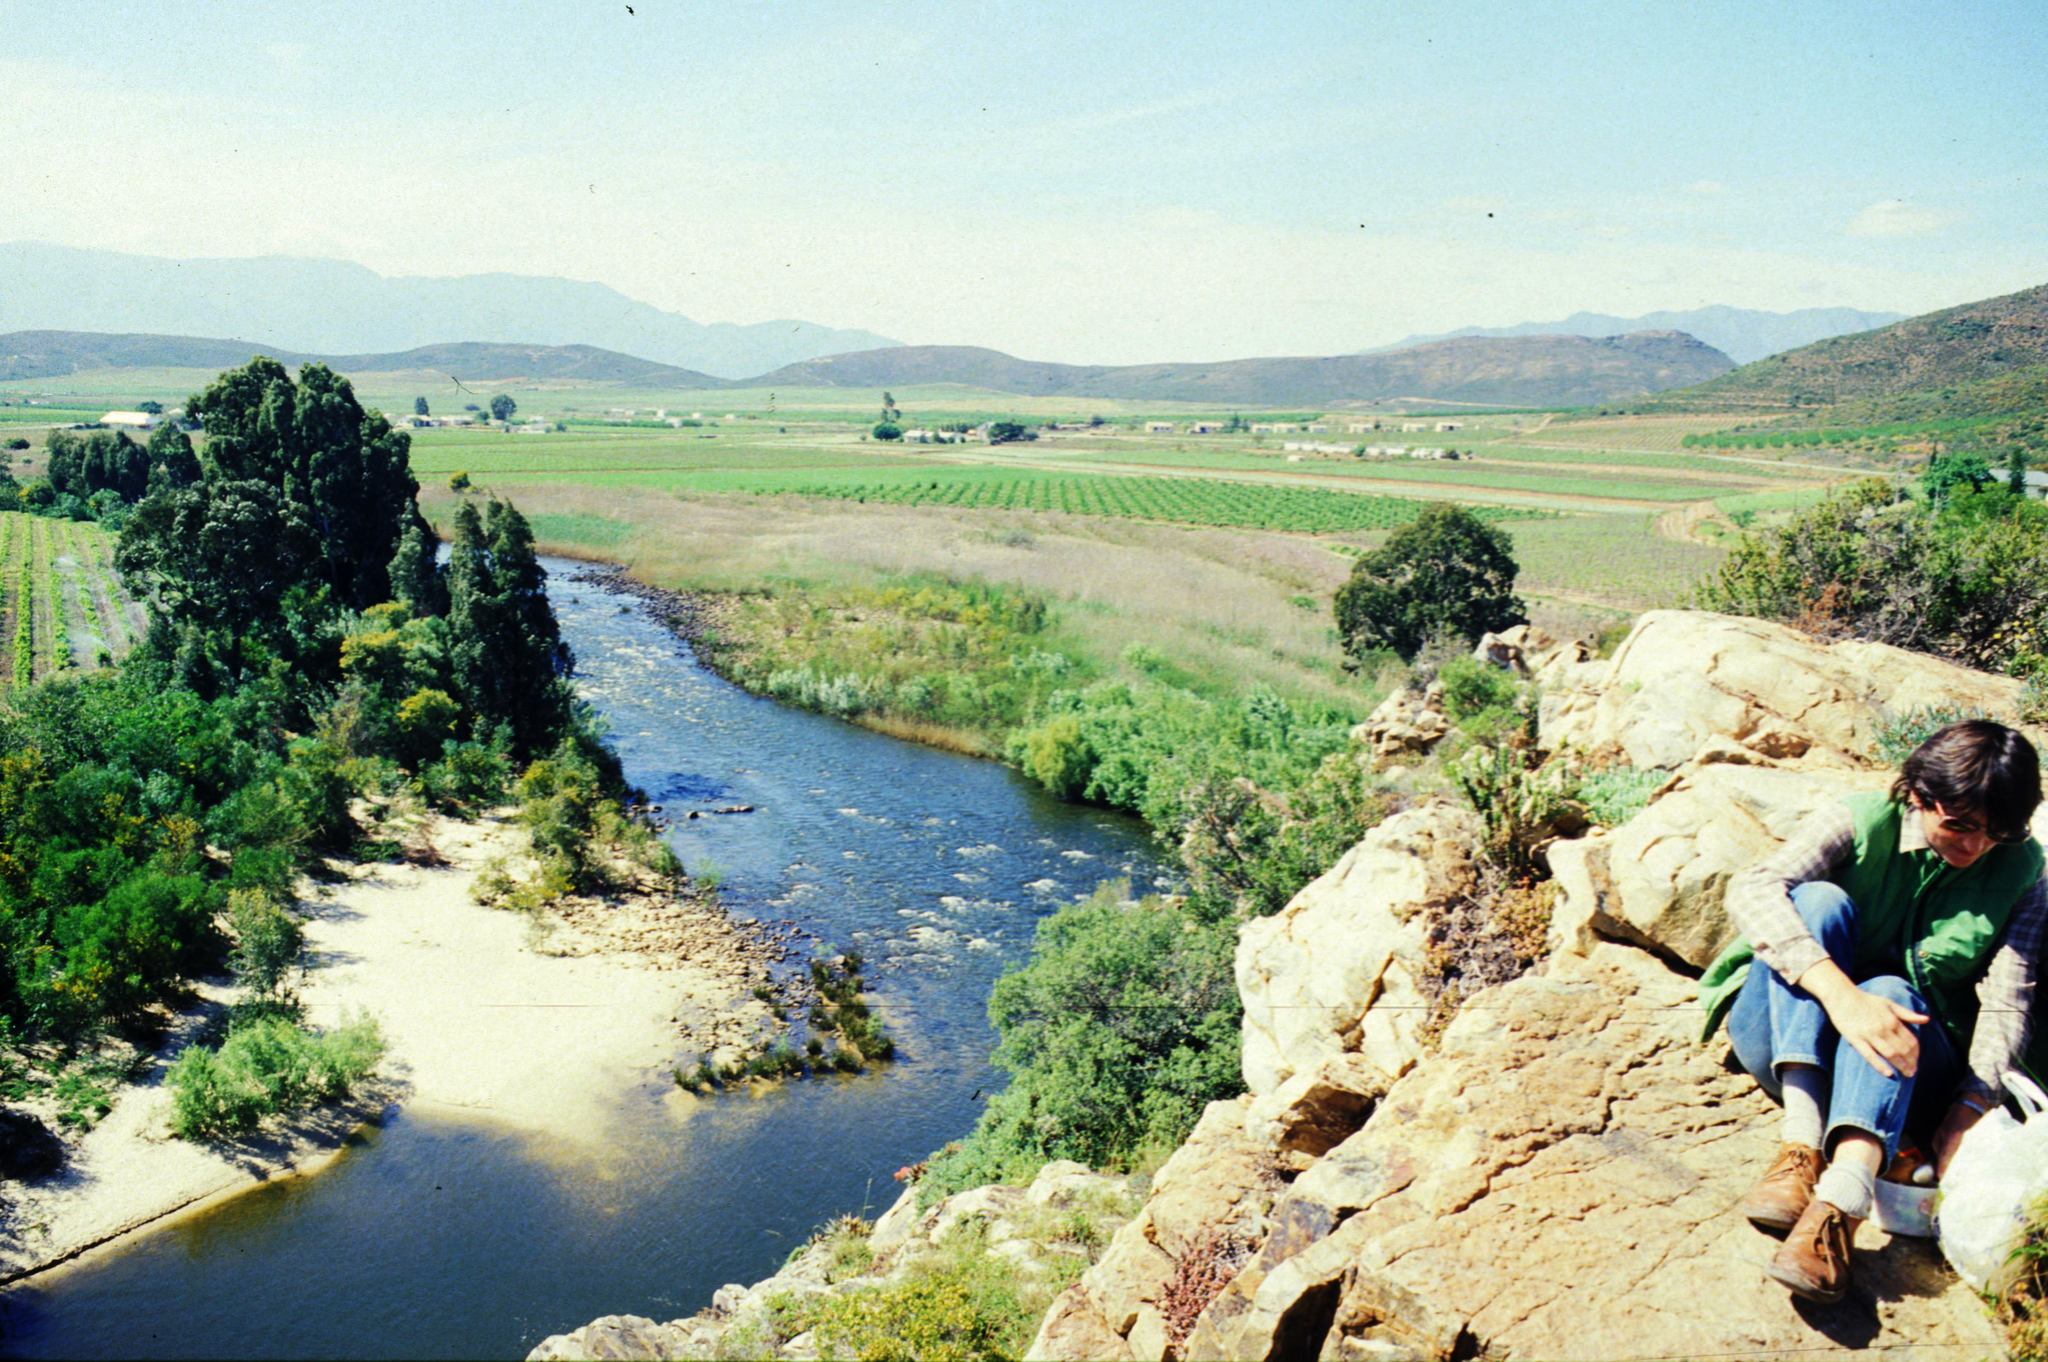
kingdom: Plantae
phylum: Tracheophyta
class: Magnoliopsida
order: Fabales
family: Fabaceae
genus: Acacia
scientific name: Acacia saligna
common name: Orange wattle
